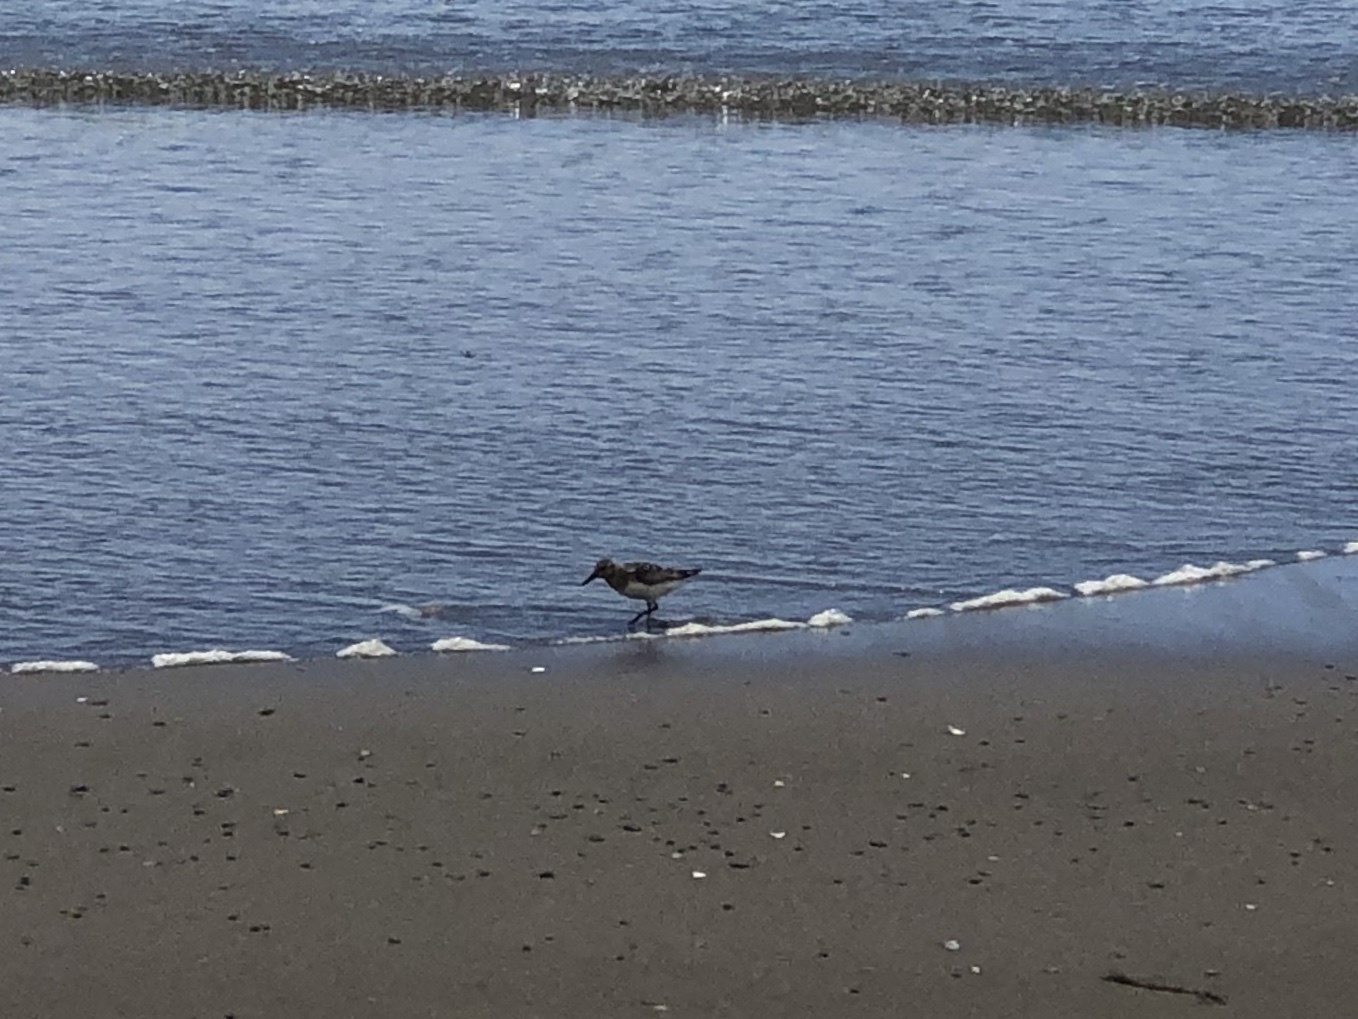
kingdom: Animalia
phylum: Chordata
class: Aves
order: Charadriiformes
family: Scolopacidae
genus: Calidris
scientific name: Calidris alba
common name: Sanderling
